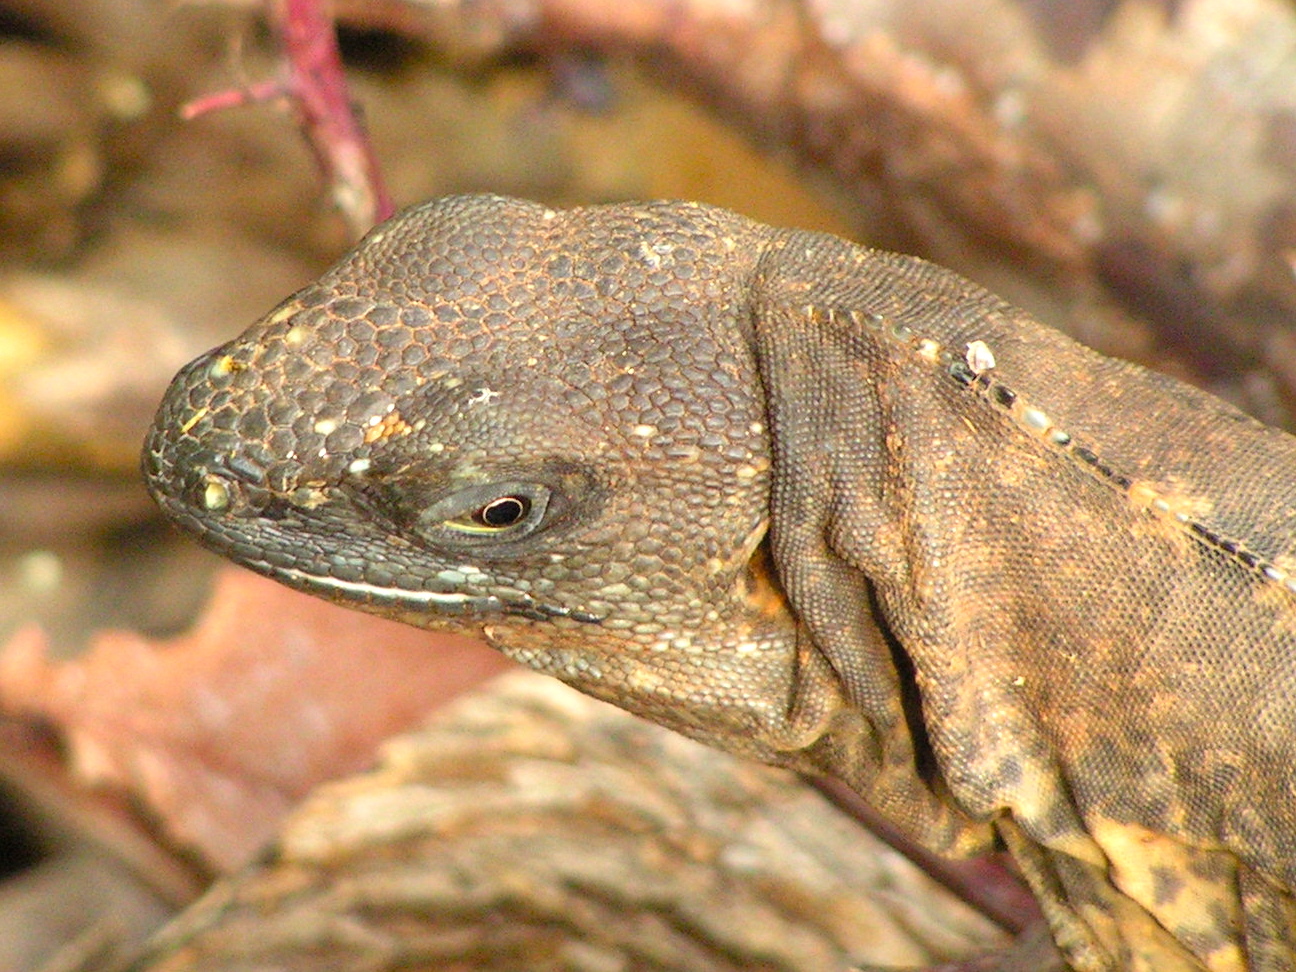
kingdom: Animalia
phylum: Chordata
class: Squamata
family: Iguanidae
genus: Ctenosaura
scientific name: Ctenosaura pectinata
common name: Guerreran spiny-tailed iguana
